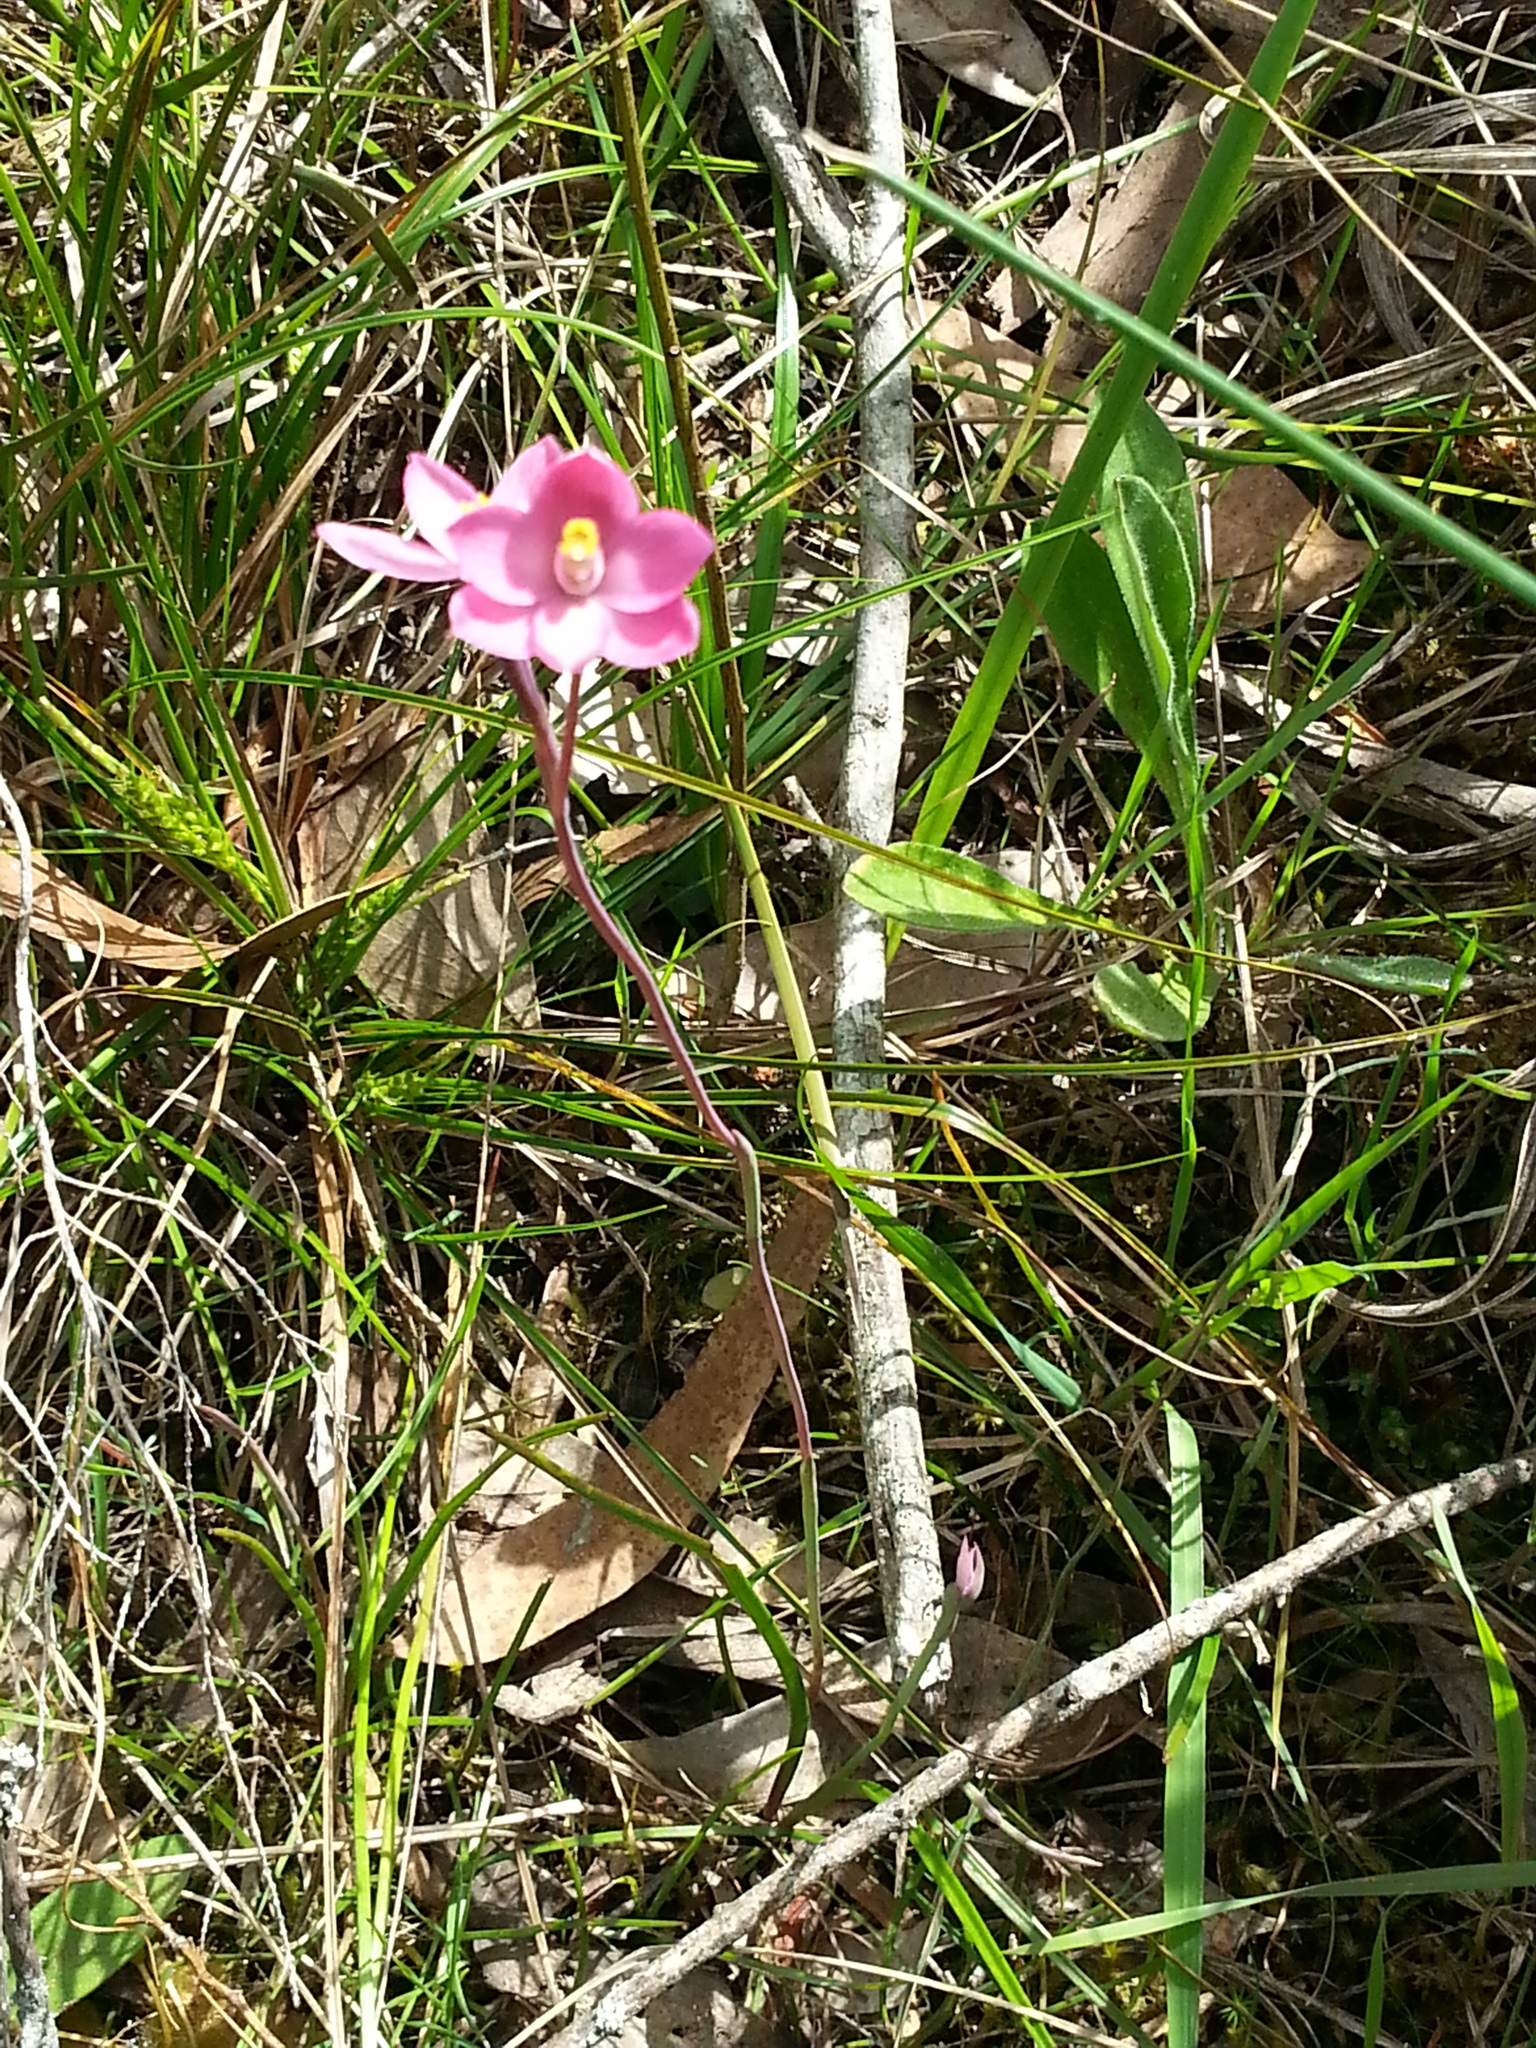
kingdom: Plantae
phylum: Tracheophyta
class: Liliopsida
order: Asparagales
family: Orchidaceae
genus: Thelymitra
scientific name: Thelymitra rubra
